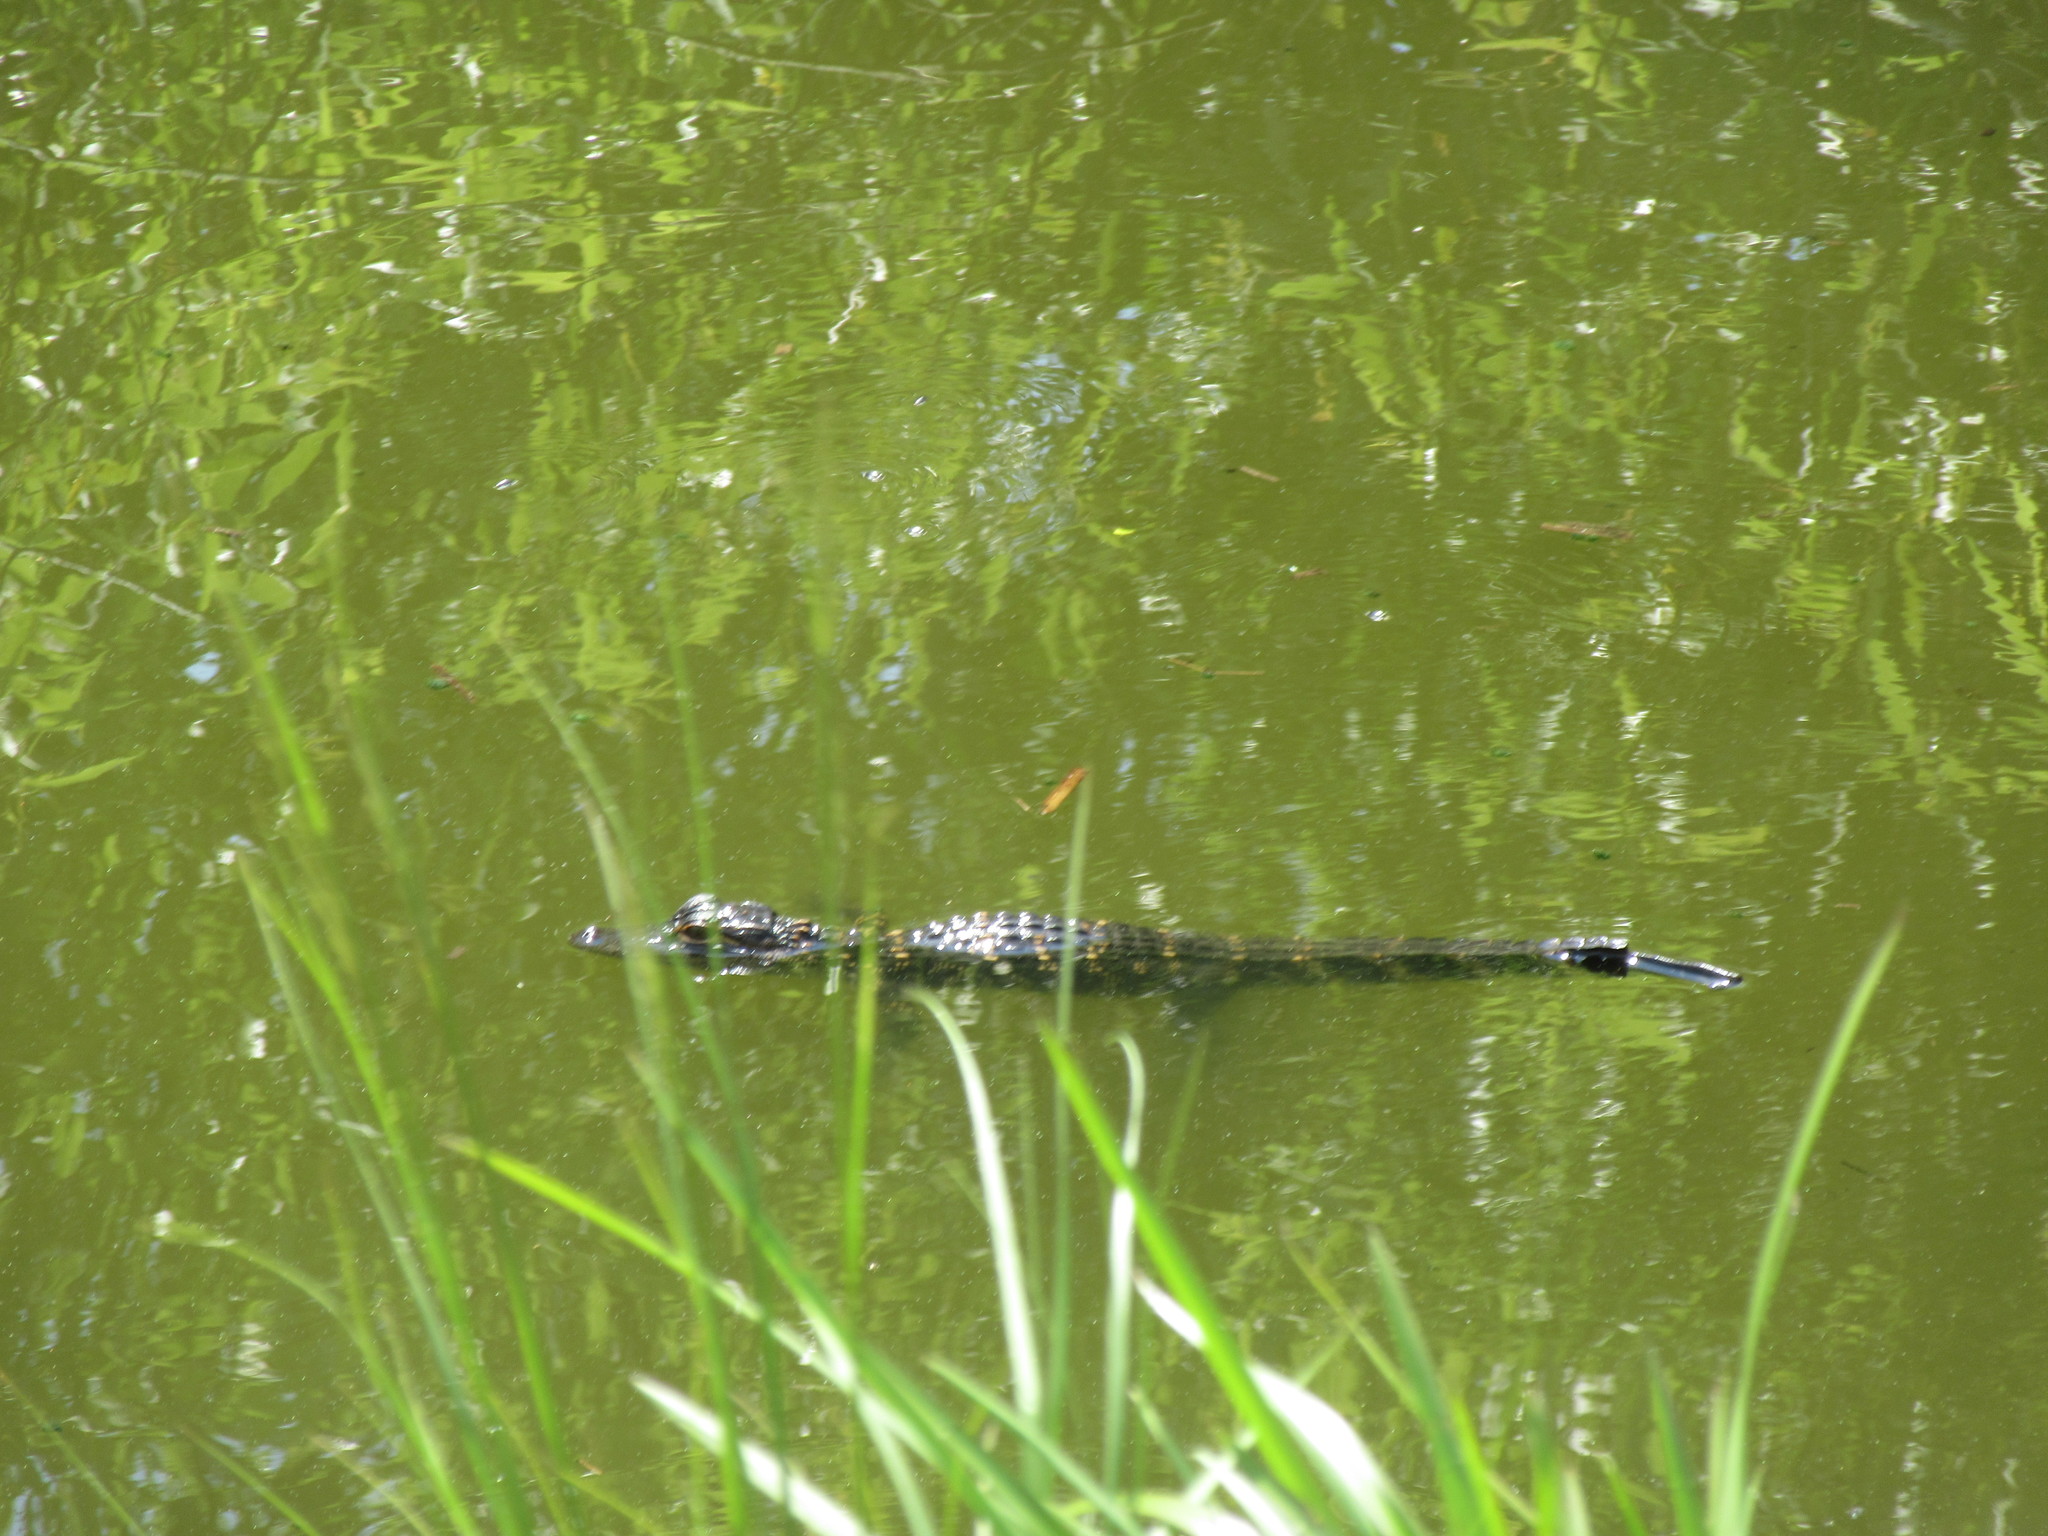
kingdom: Animalia
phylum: Chordata
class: Crocodylia
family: Alligatoridae
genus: Alligator
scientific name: Alligator mississippiensis
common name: American alligator
